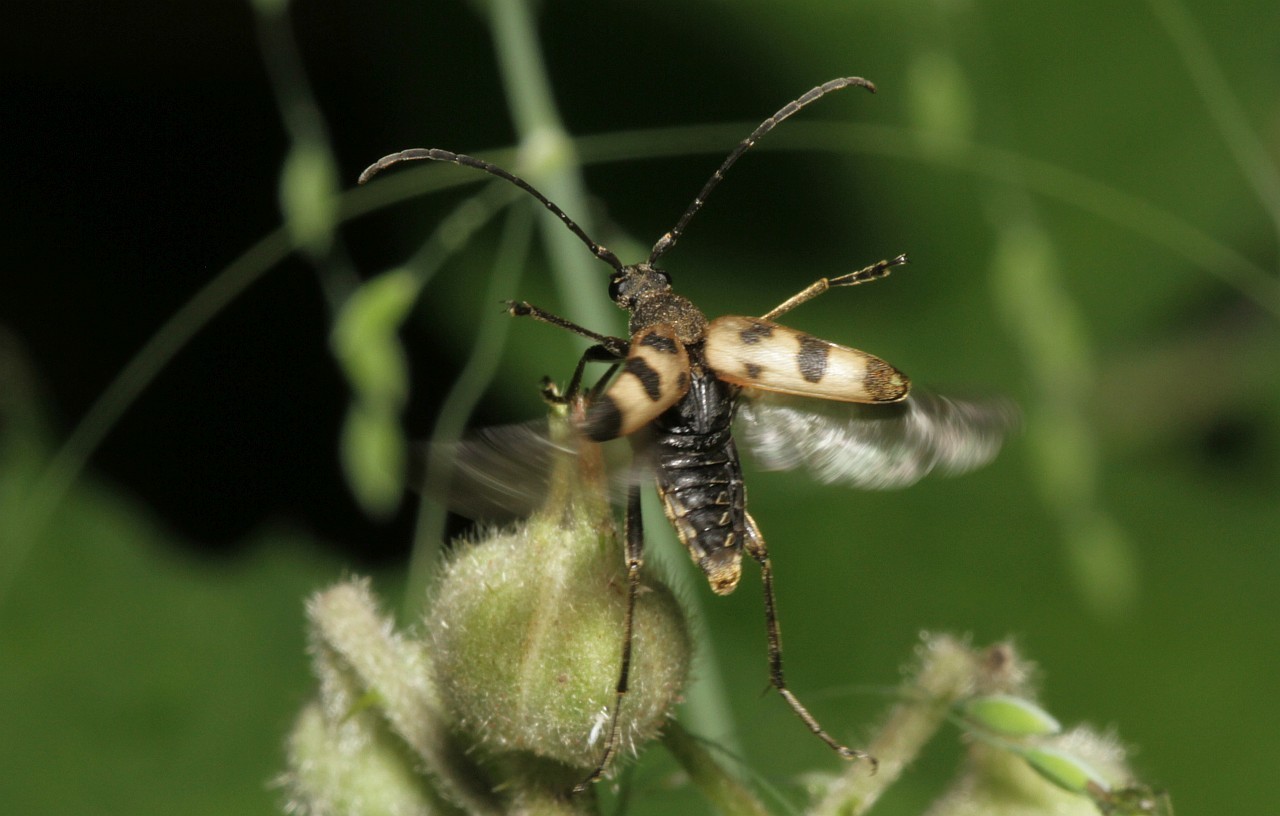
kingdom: Animalia
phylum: Arthropoda
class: Insecta
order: Coleoptera
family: Cerambycidae
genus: Pachytodes
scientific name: Pachytodes cerambyciformis
